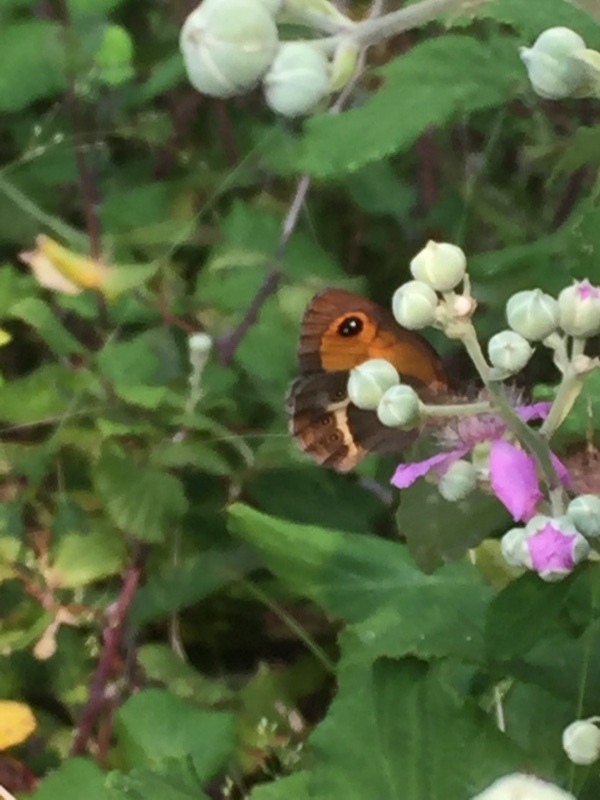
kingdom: Animalia
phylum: Arthropoda
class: Insecta
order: Lepidoptera
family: Nymphalidae
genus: Pyronia
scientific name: Pyronia bathseba
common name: Spanish gatekeeper
